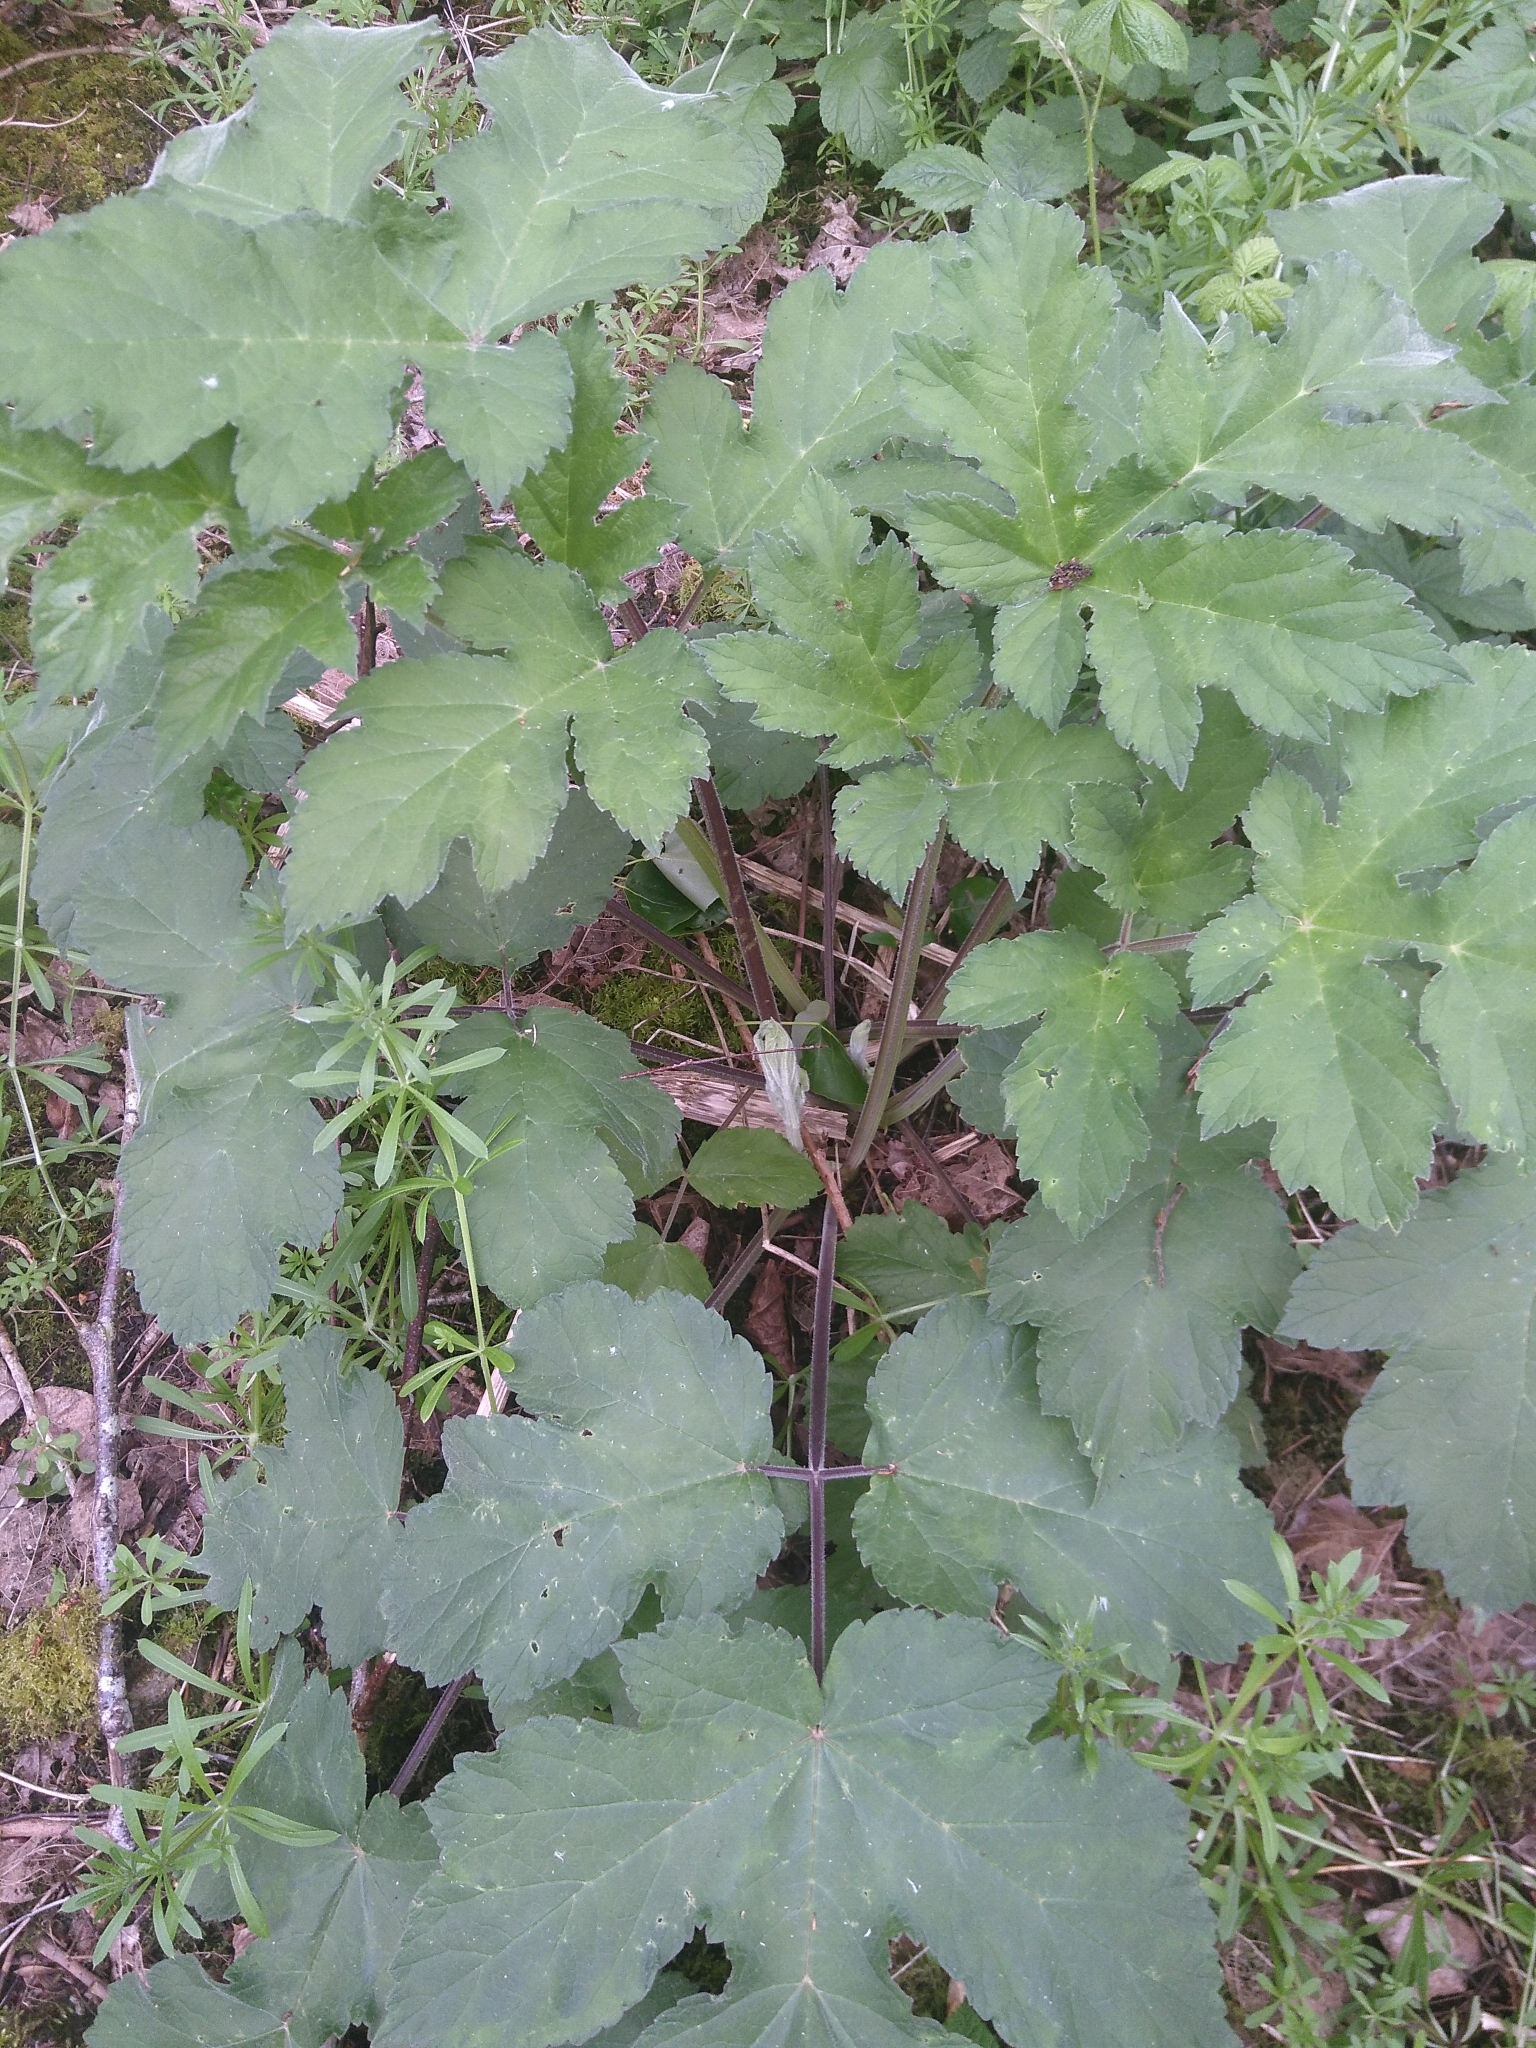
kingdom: Plantae
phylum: Tracheophyta
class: Magnoliopsida
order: Apiales
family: Apiaceae
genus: Heracleum
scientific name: Heracleum sphondylium
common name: Hogweed
